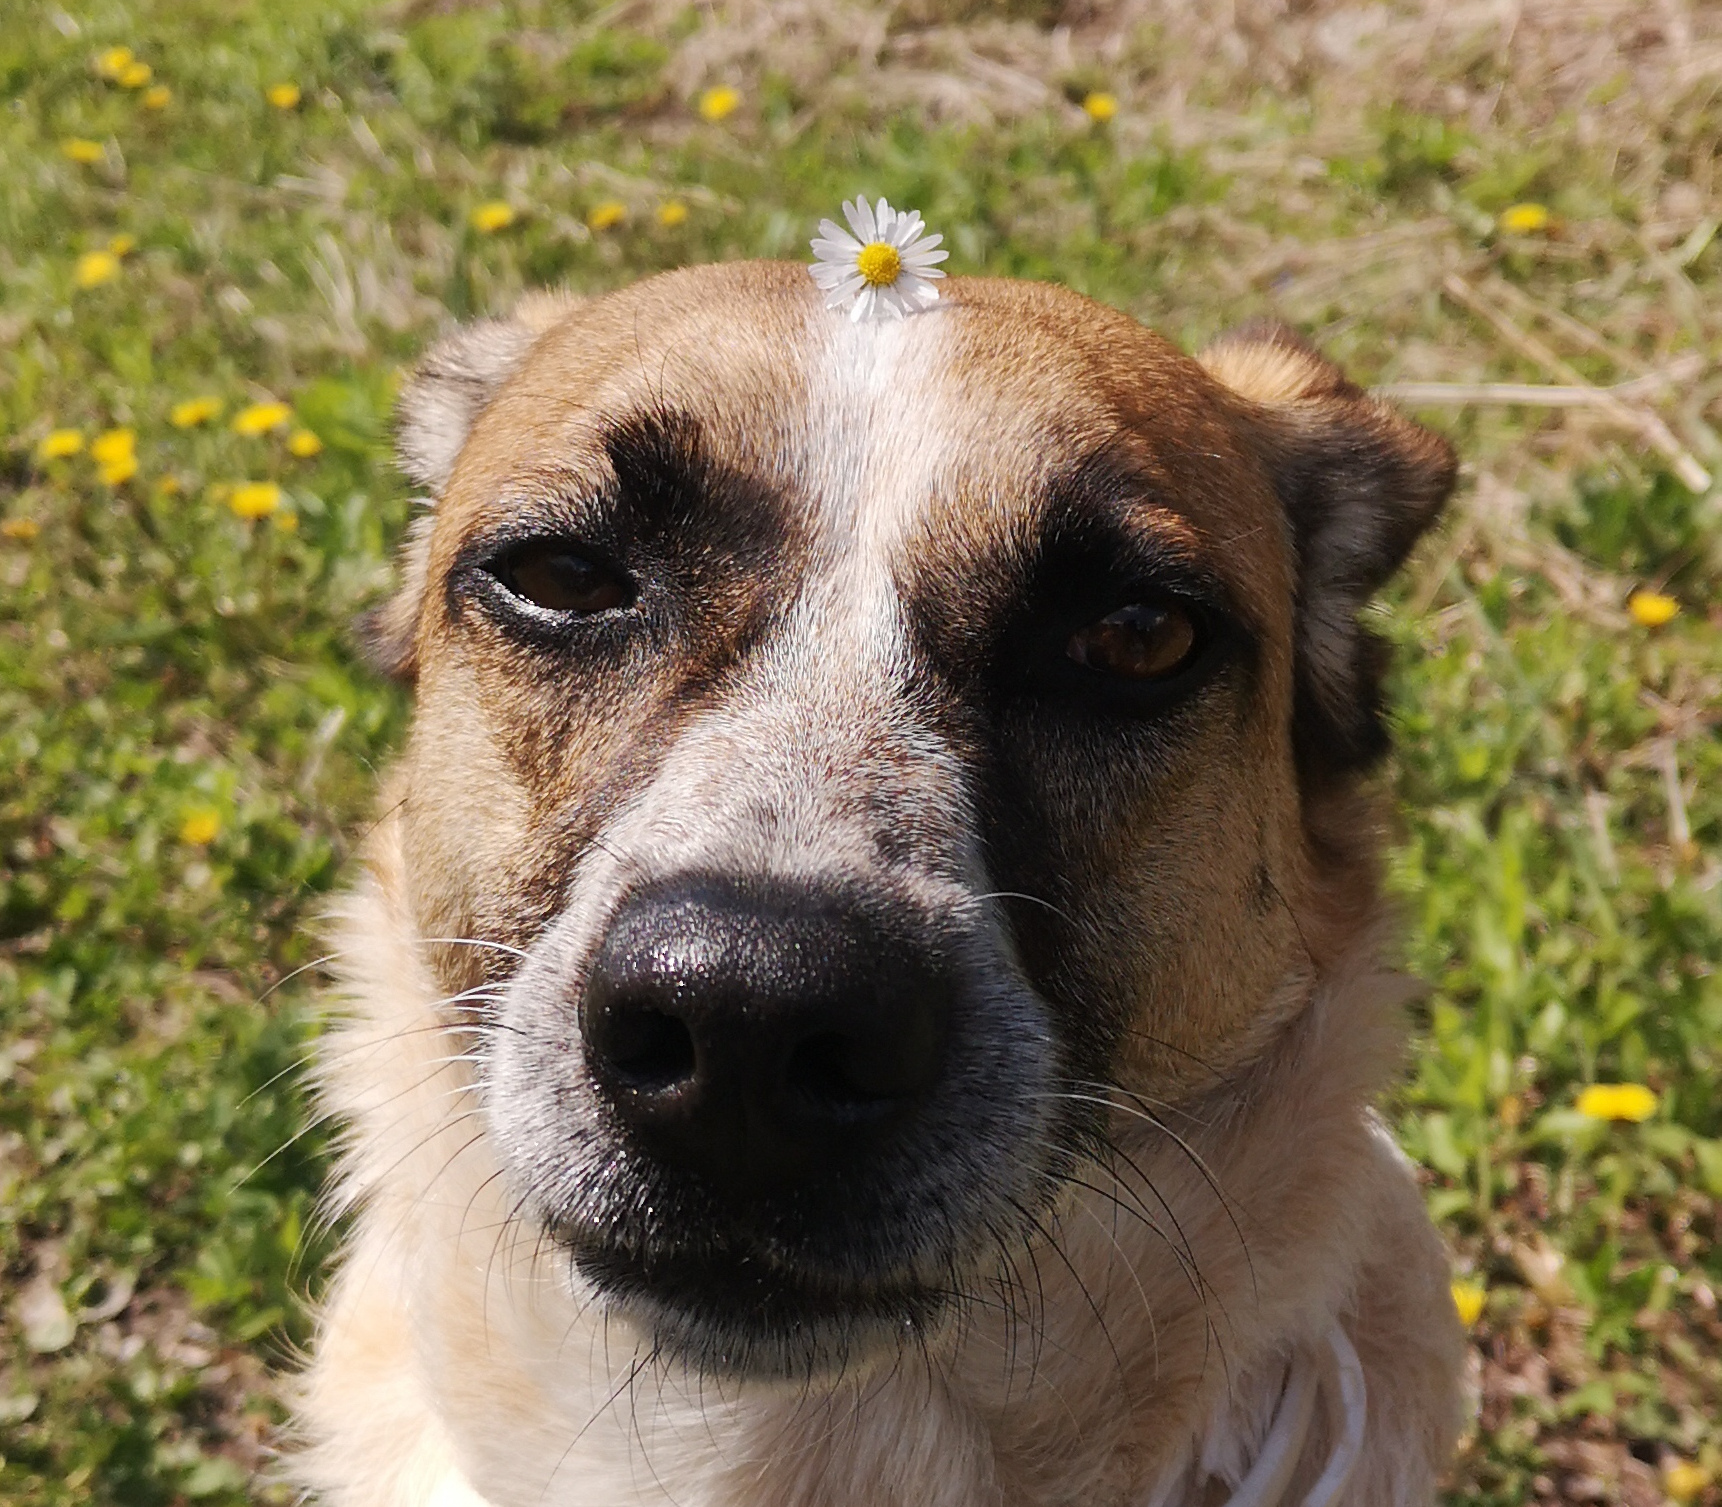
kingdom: Plantae
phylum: Tracheophyta
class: Magnoliopsida
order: Asterales
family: Asteraceae
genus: Bellis
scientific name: Bellis perennis
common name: Lawndaisy
